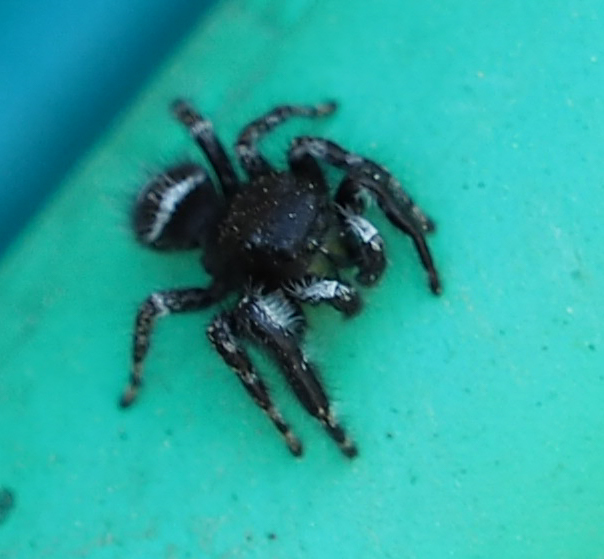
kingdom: Animalia
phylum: Arthropoda
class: Arachnida
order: Araneae
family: Salticidae
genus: Phidippus
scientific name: Phidippus audax
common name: Bold jumper
